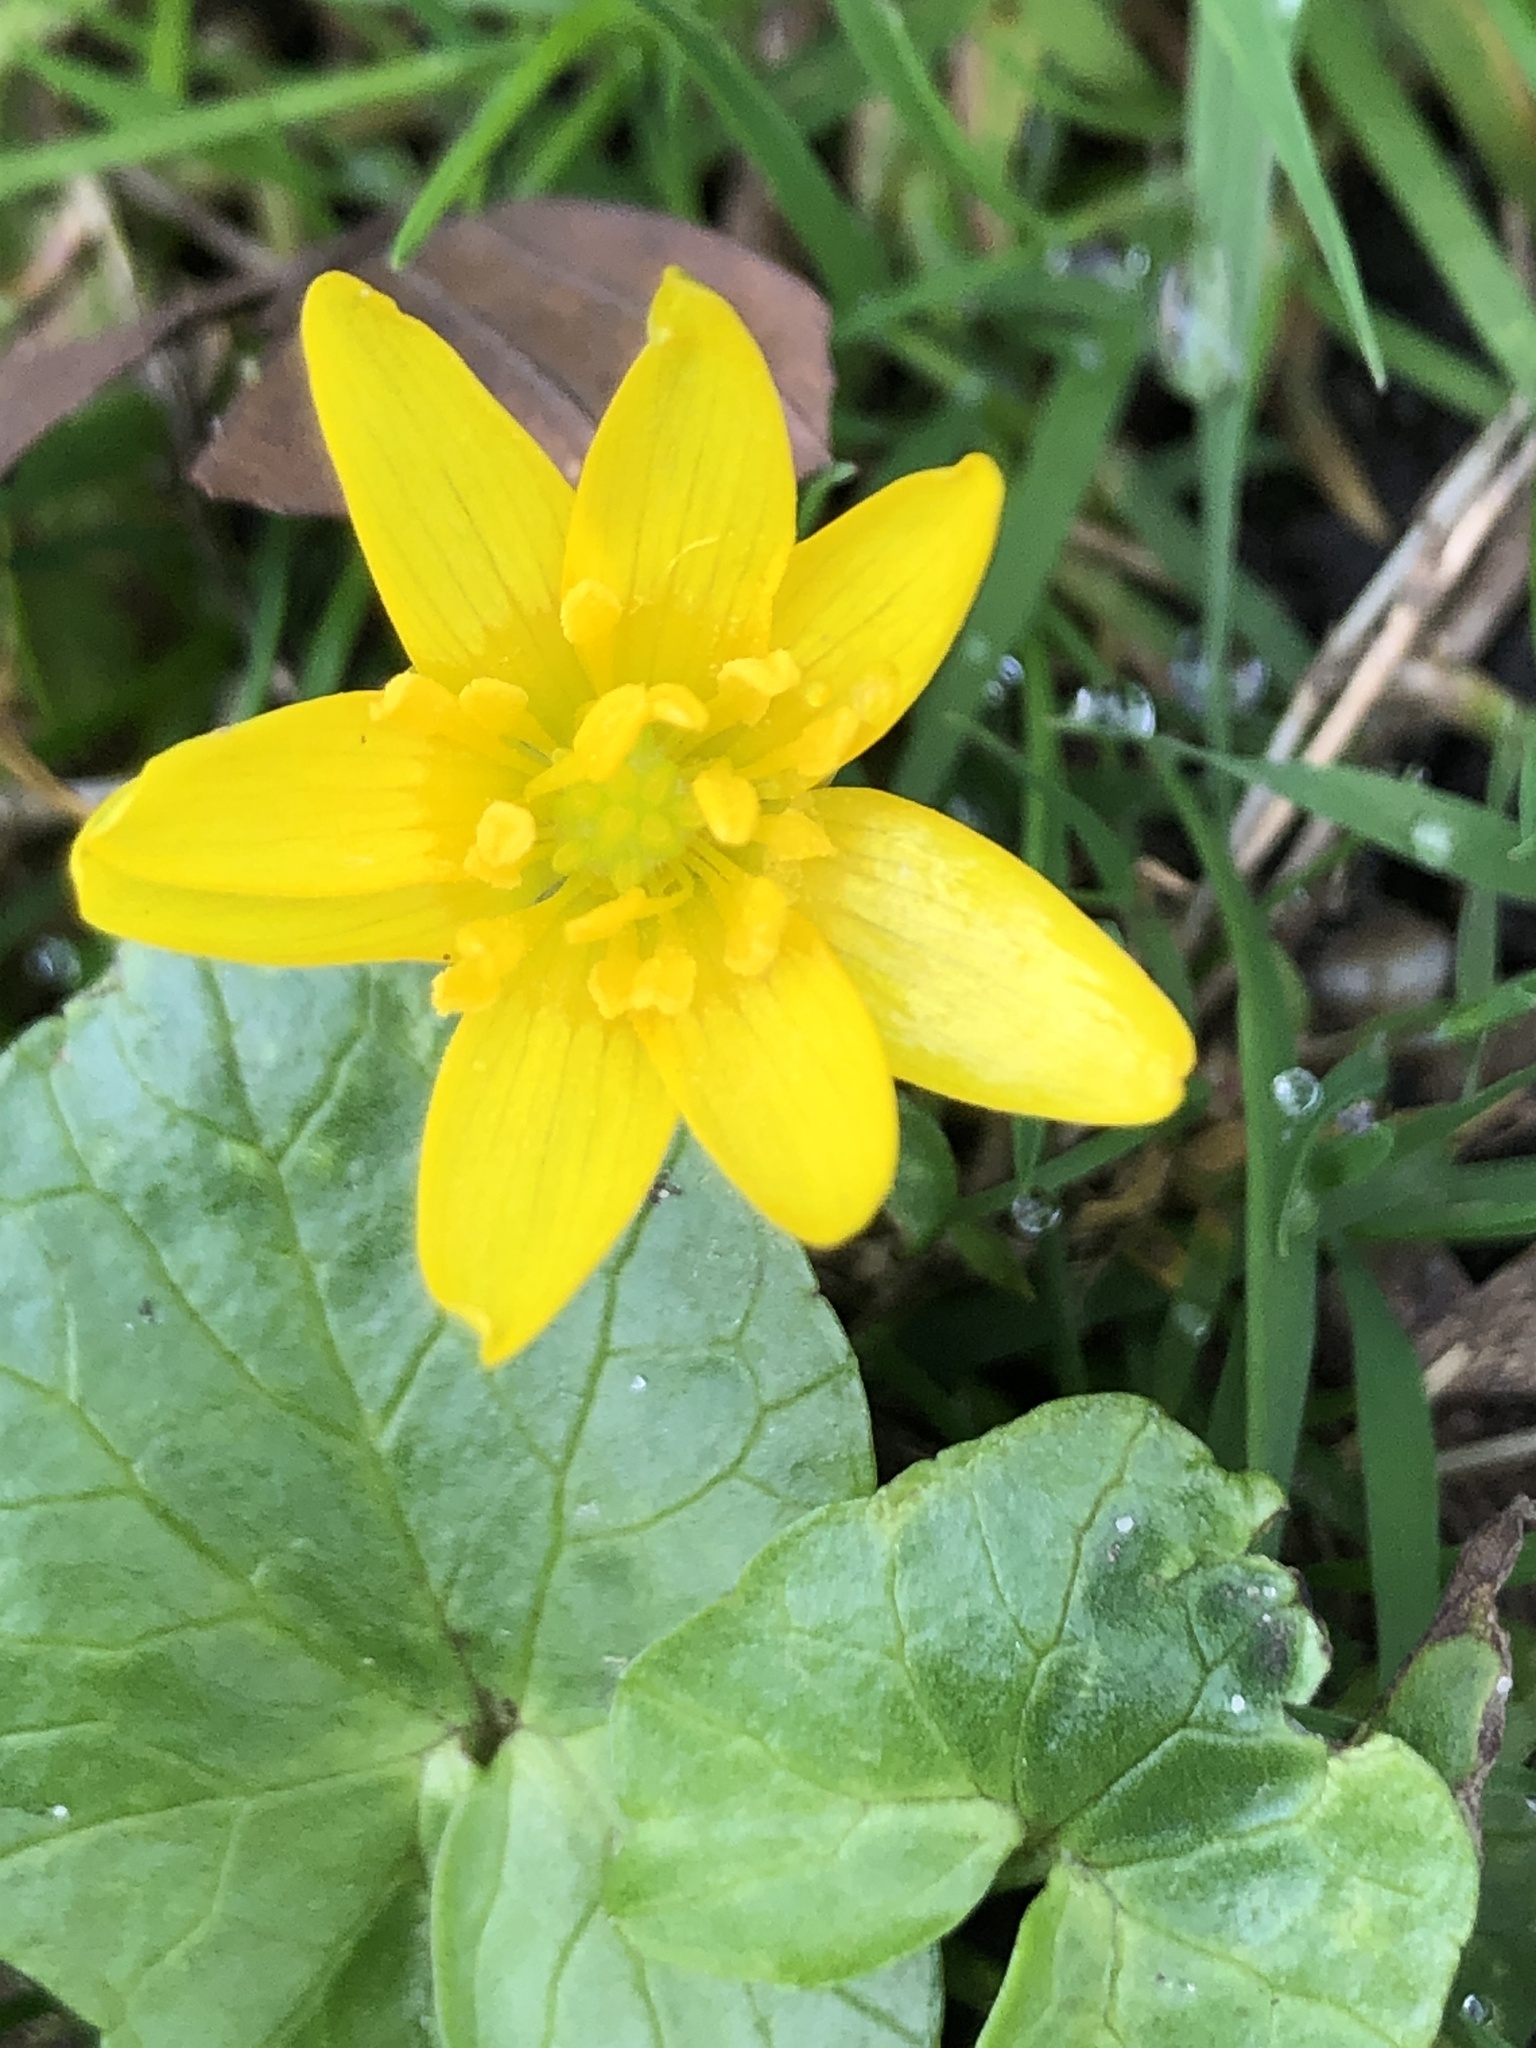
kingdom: Plantae
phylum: Tracheophyta
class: Magnoliopsida
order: Ranunculales
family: Ranunculaceae
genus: Ficaria
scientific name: Ficaria verna
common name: Lesser celandine
